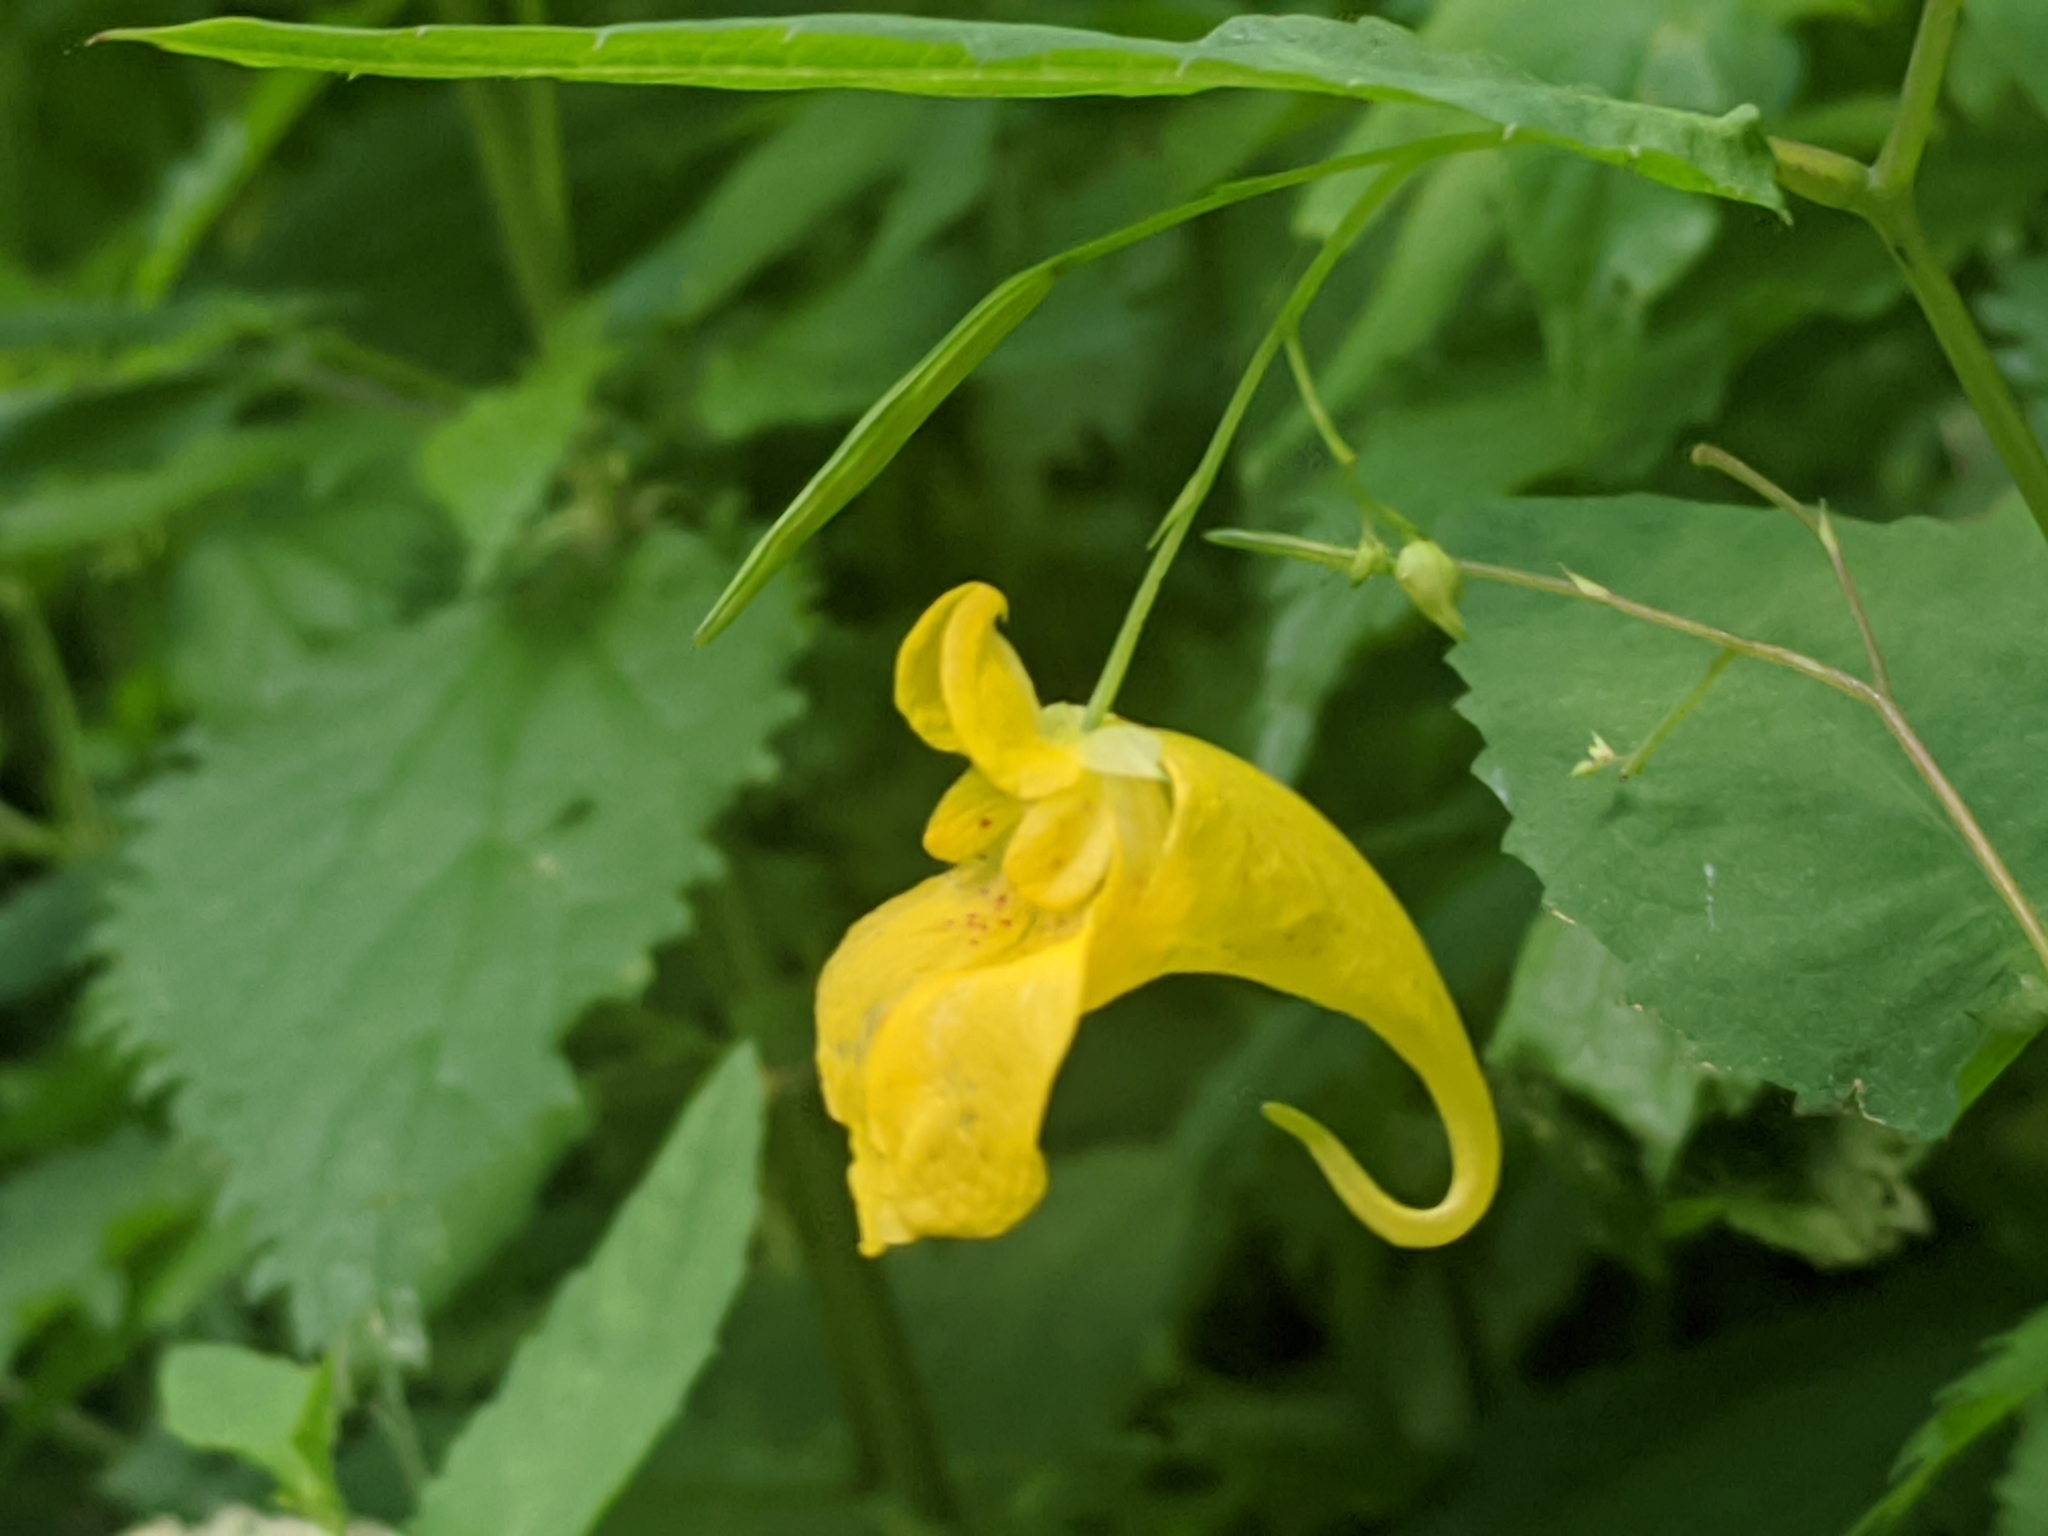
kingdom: Plantae
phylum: Tracheophyta
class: Magnoliopsida
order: Ericales
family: Balsaminaceae
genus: Impatiens
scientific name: Impatiens noli-tangere
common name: Touch-me-not balsam
